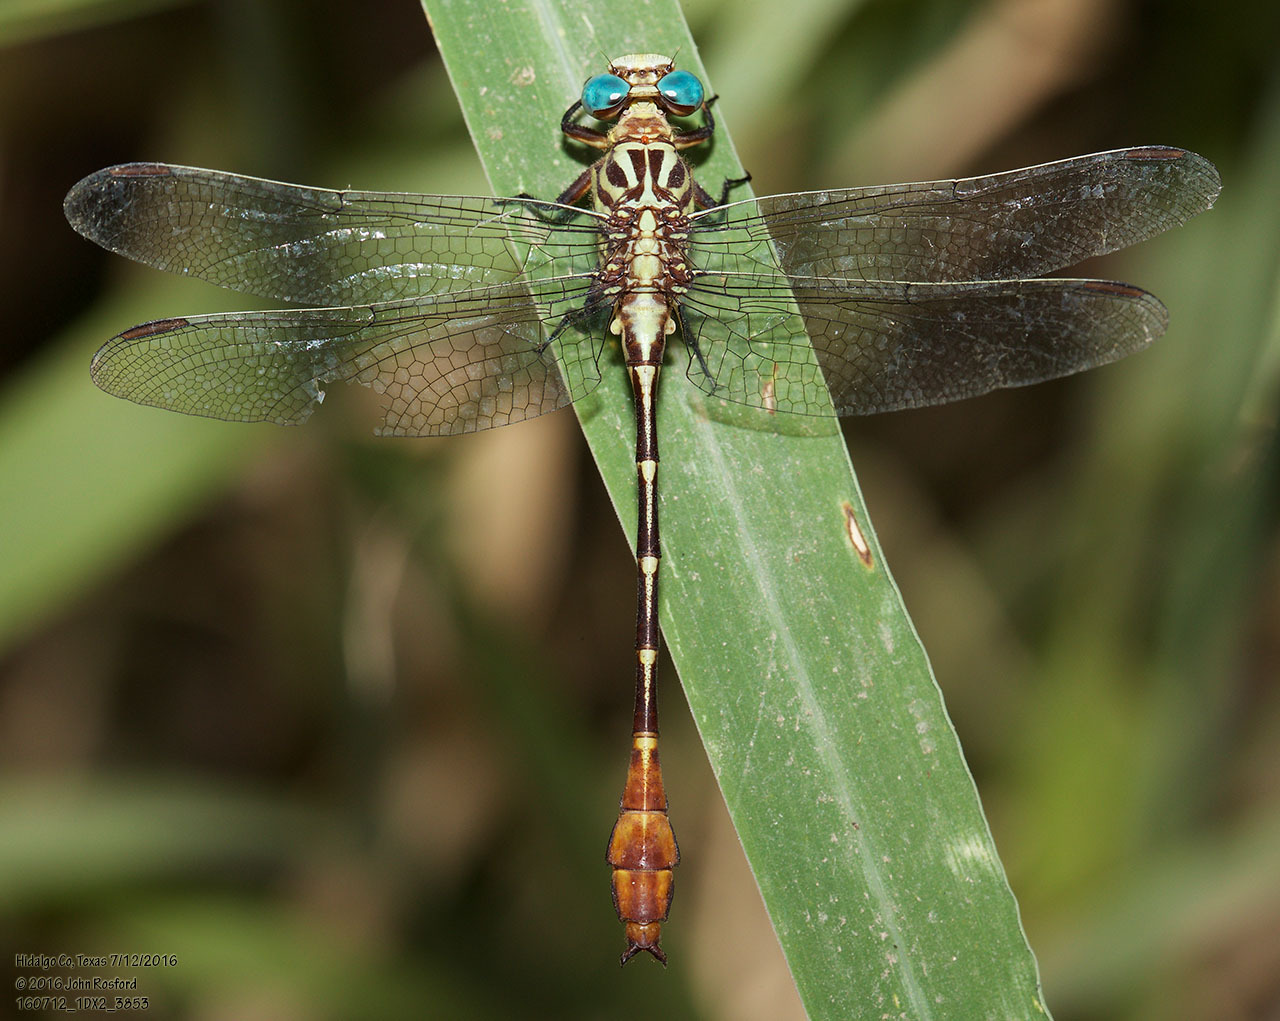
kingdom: Animalia
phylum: Arthropoda
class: Insecta
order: Odonata
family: Gomphidae
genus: Stylurus
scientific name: Stylurus plagiatus
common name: Russet-tipped clubtail
